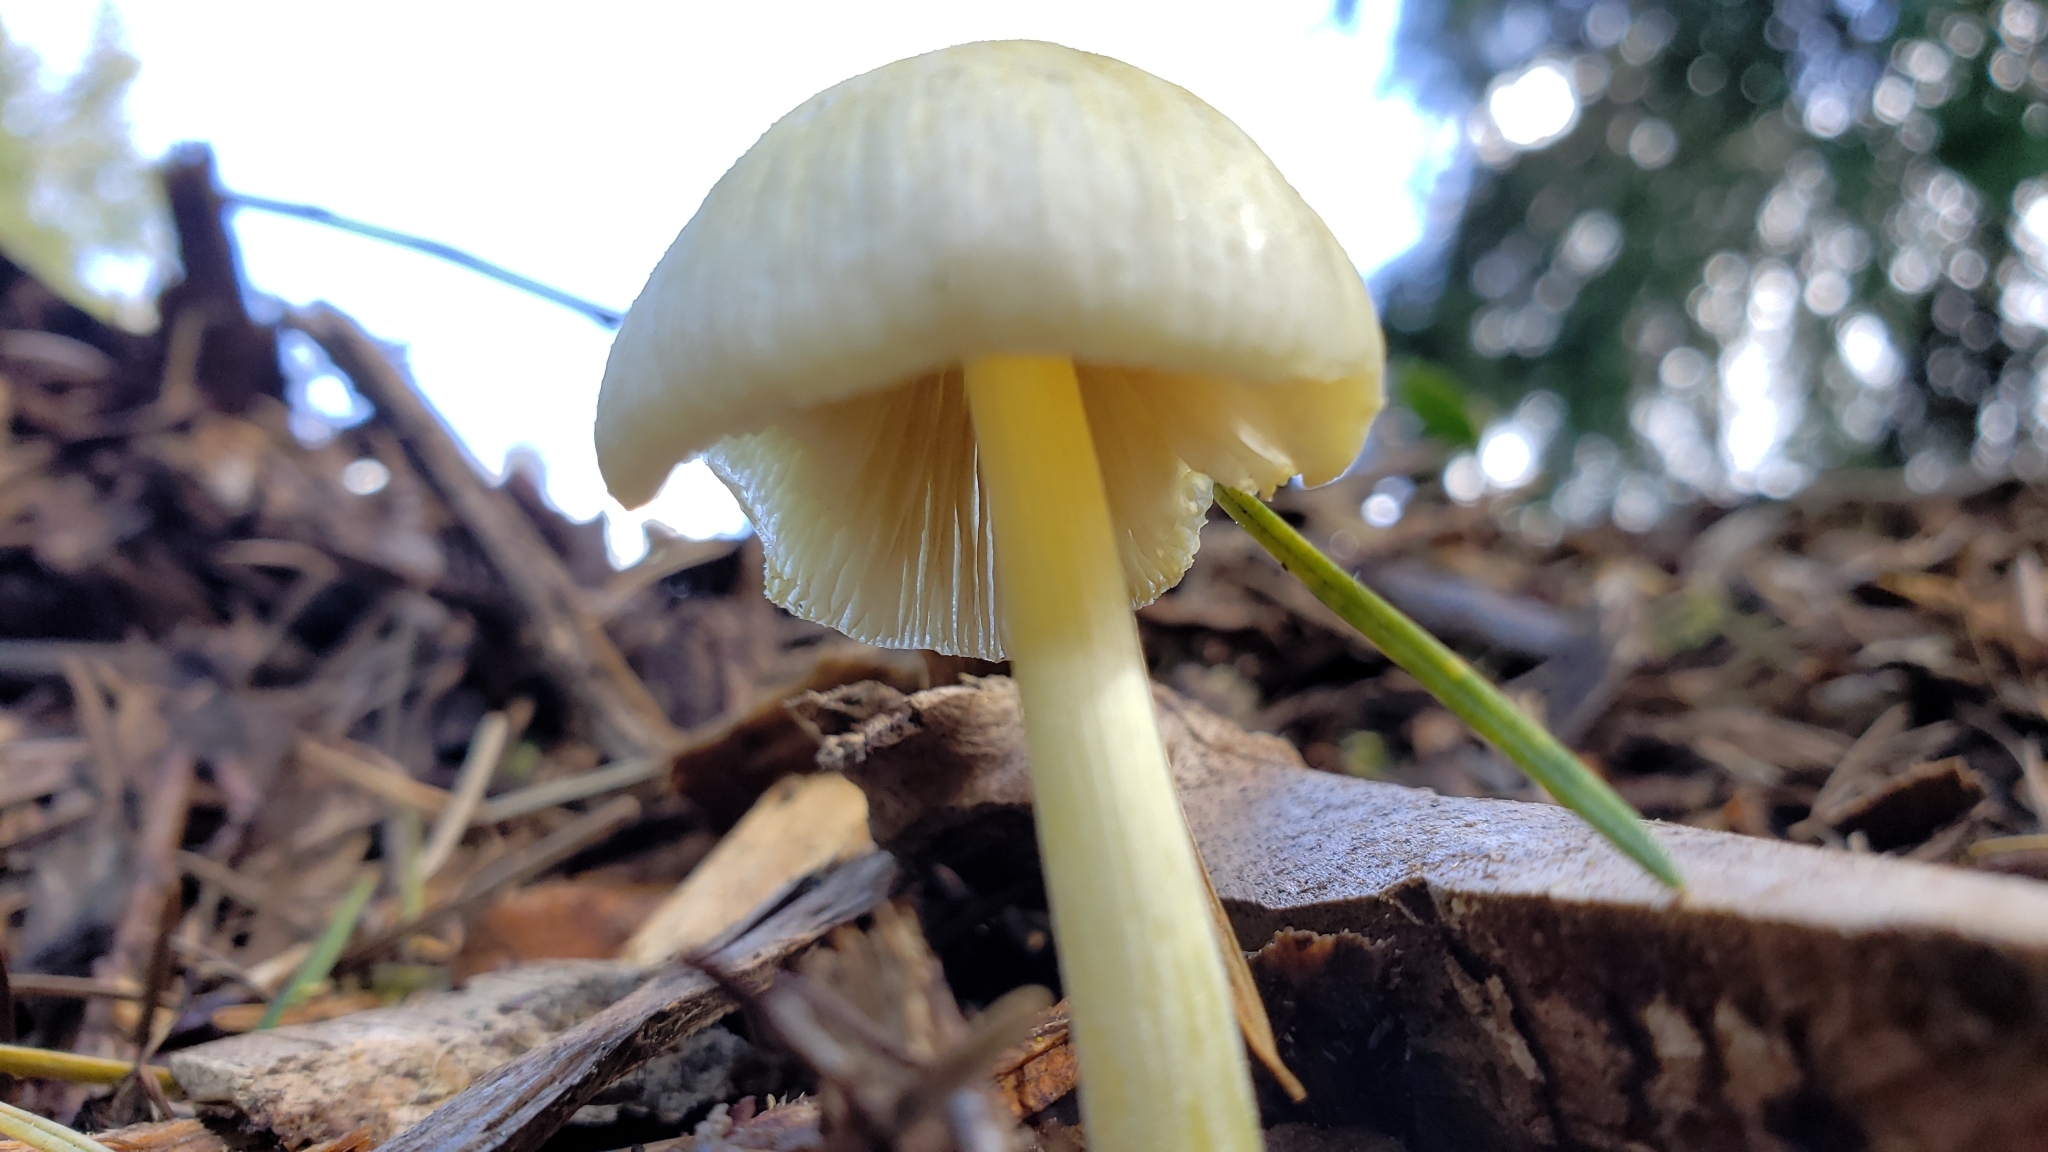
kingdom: Fungi
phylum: Basidiomycota
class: Agaricomycetes
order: Agaricales
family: Bolbitiaceae
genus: Bolbitius
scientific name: Bolbitius titubans
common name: Yellow fieldcap
